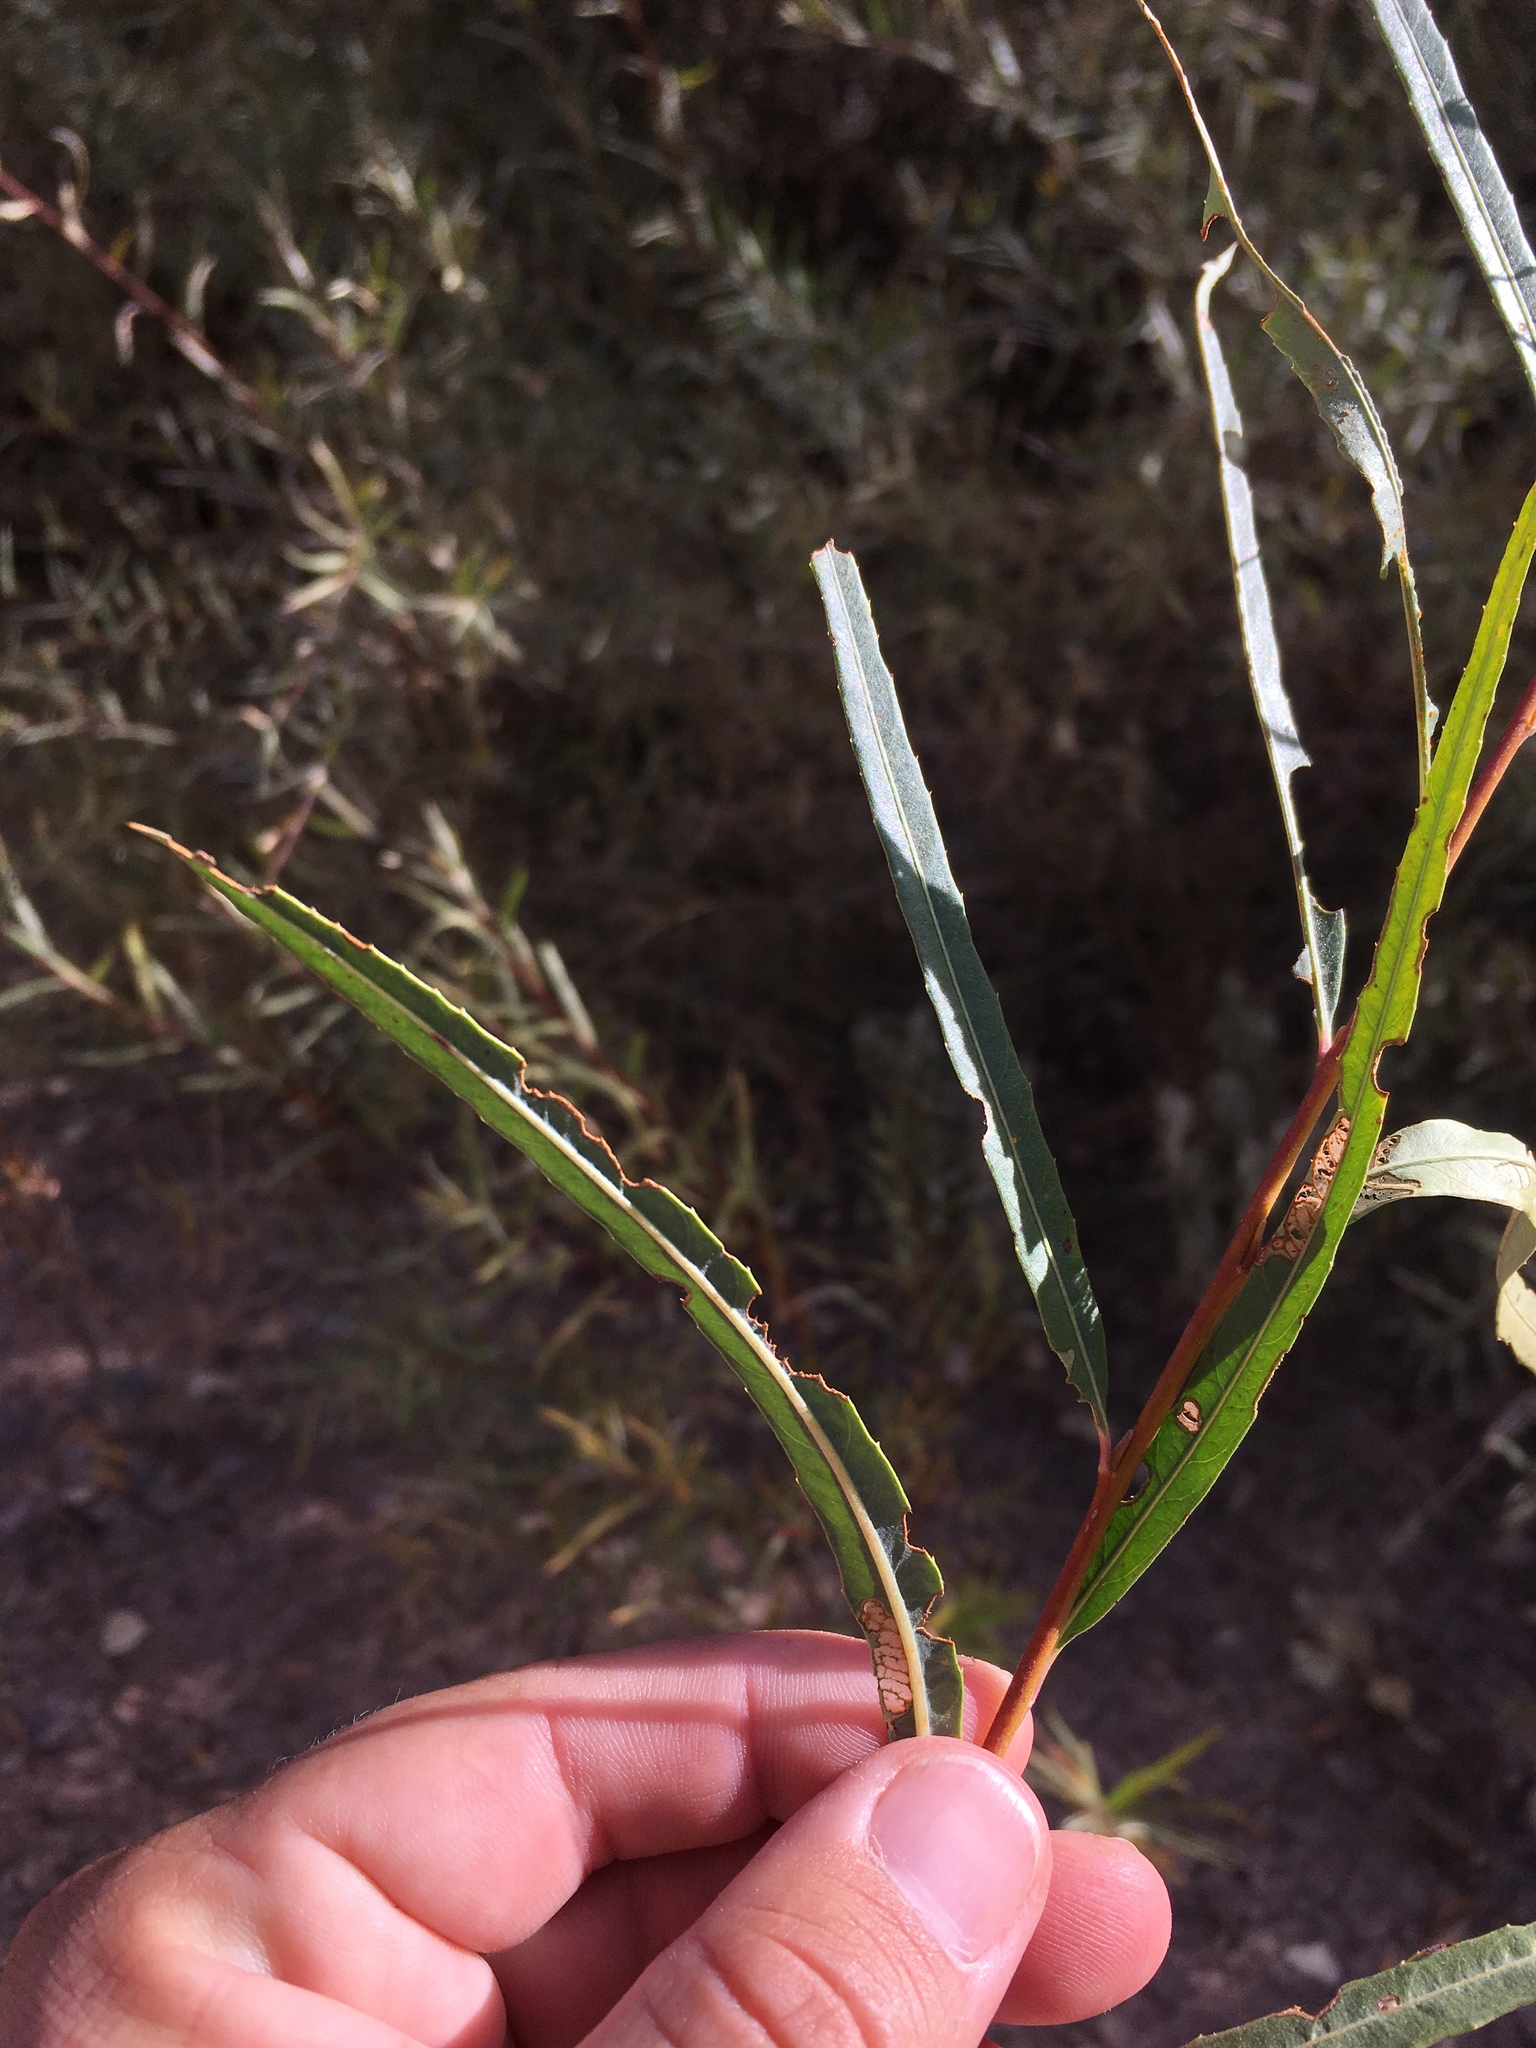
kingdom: Plantae
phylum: Tracheophyta
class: Magnoliopsida
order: Malpighiales
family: Salicaceae
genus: Salix
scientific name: Salix exigua
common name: Coyote willow
